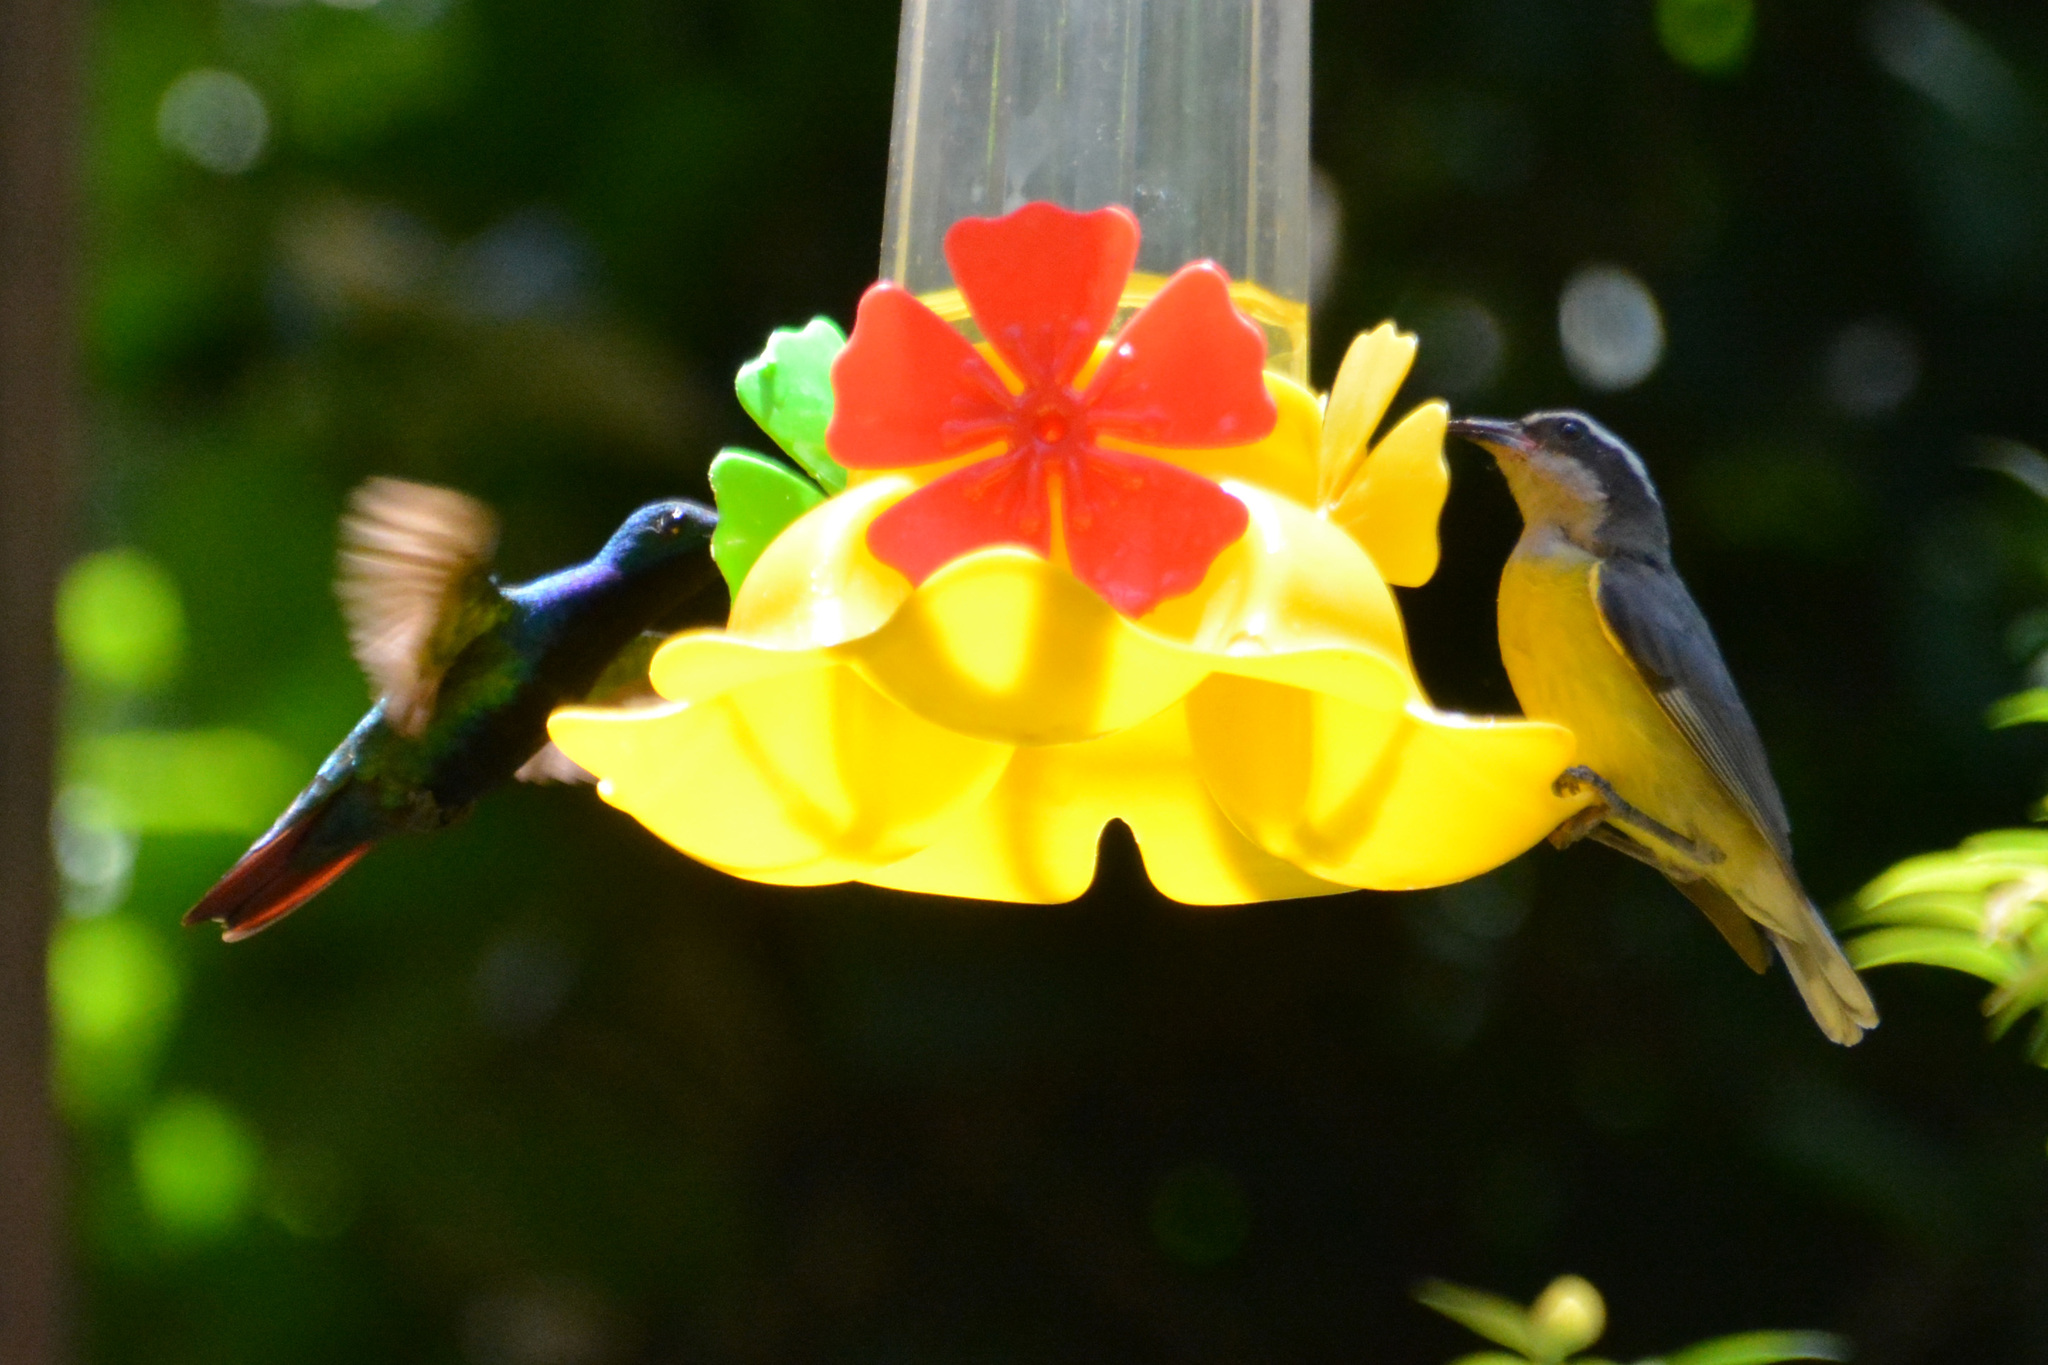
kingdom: Animalia
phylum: Chordata
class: Aves
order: Passeriformes
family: Thraupidae
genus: Coereba
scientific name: Coereba flaveola
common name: Bananaquit
